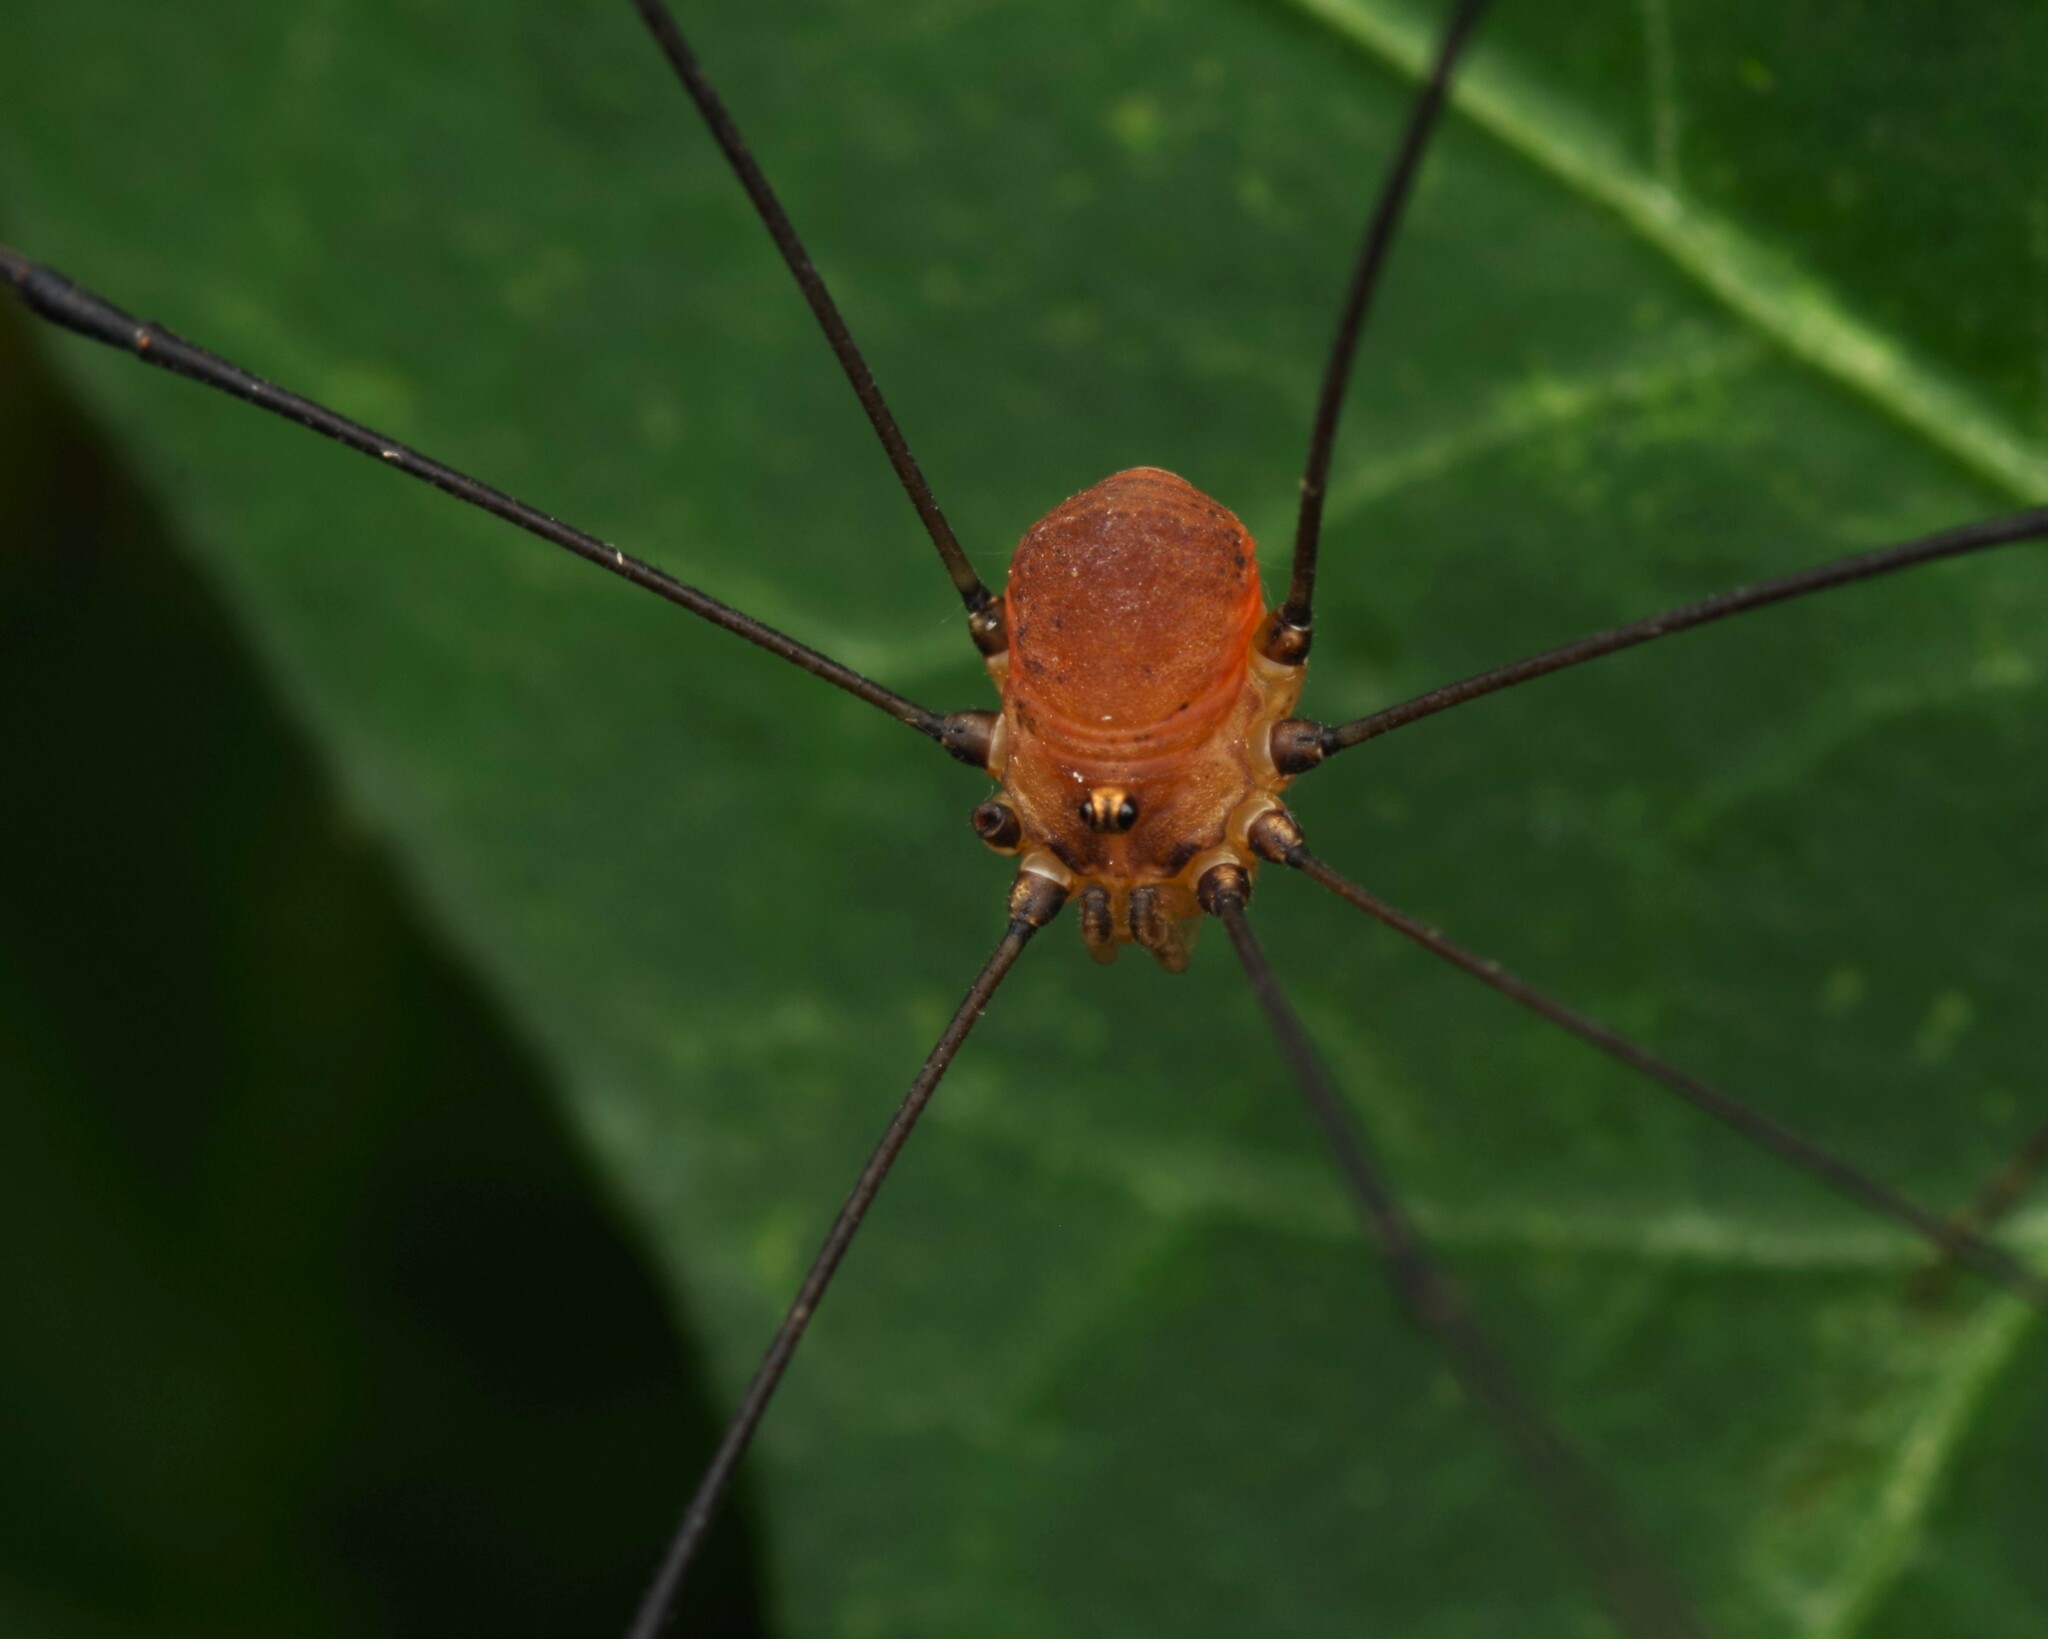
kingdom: Animalia
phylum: Arthropoda
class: Arachnida
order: Opiliones
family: Sclerosomatidae
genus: Leiobunum
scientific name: Leiobunum blackwalli
